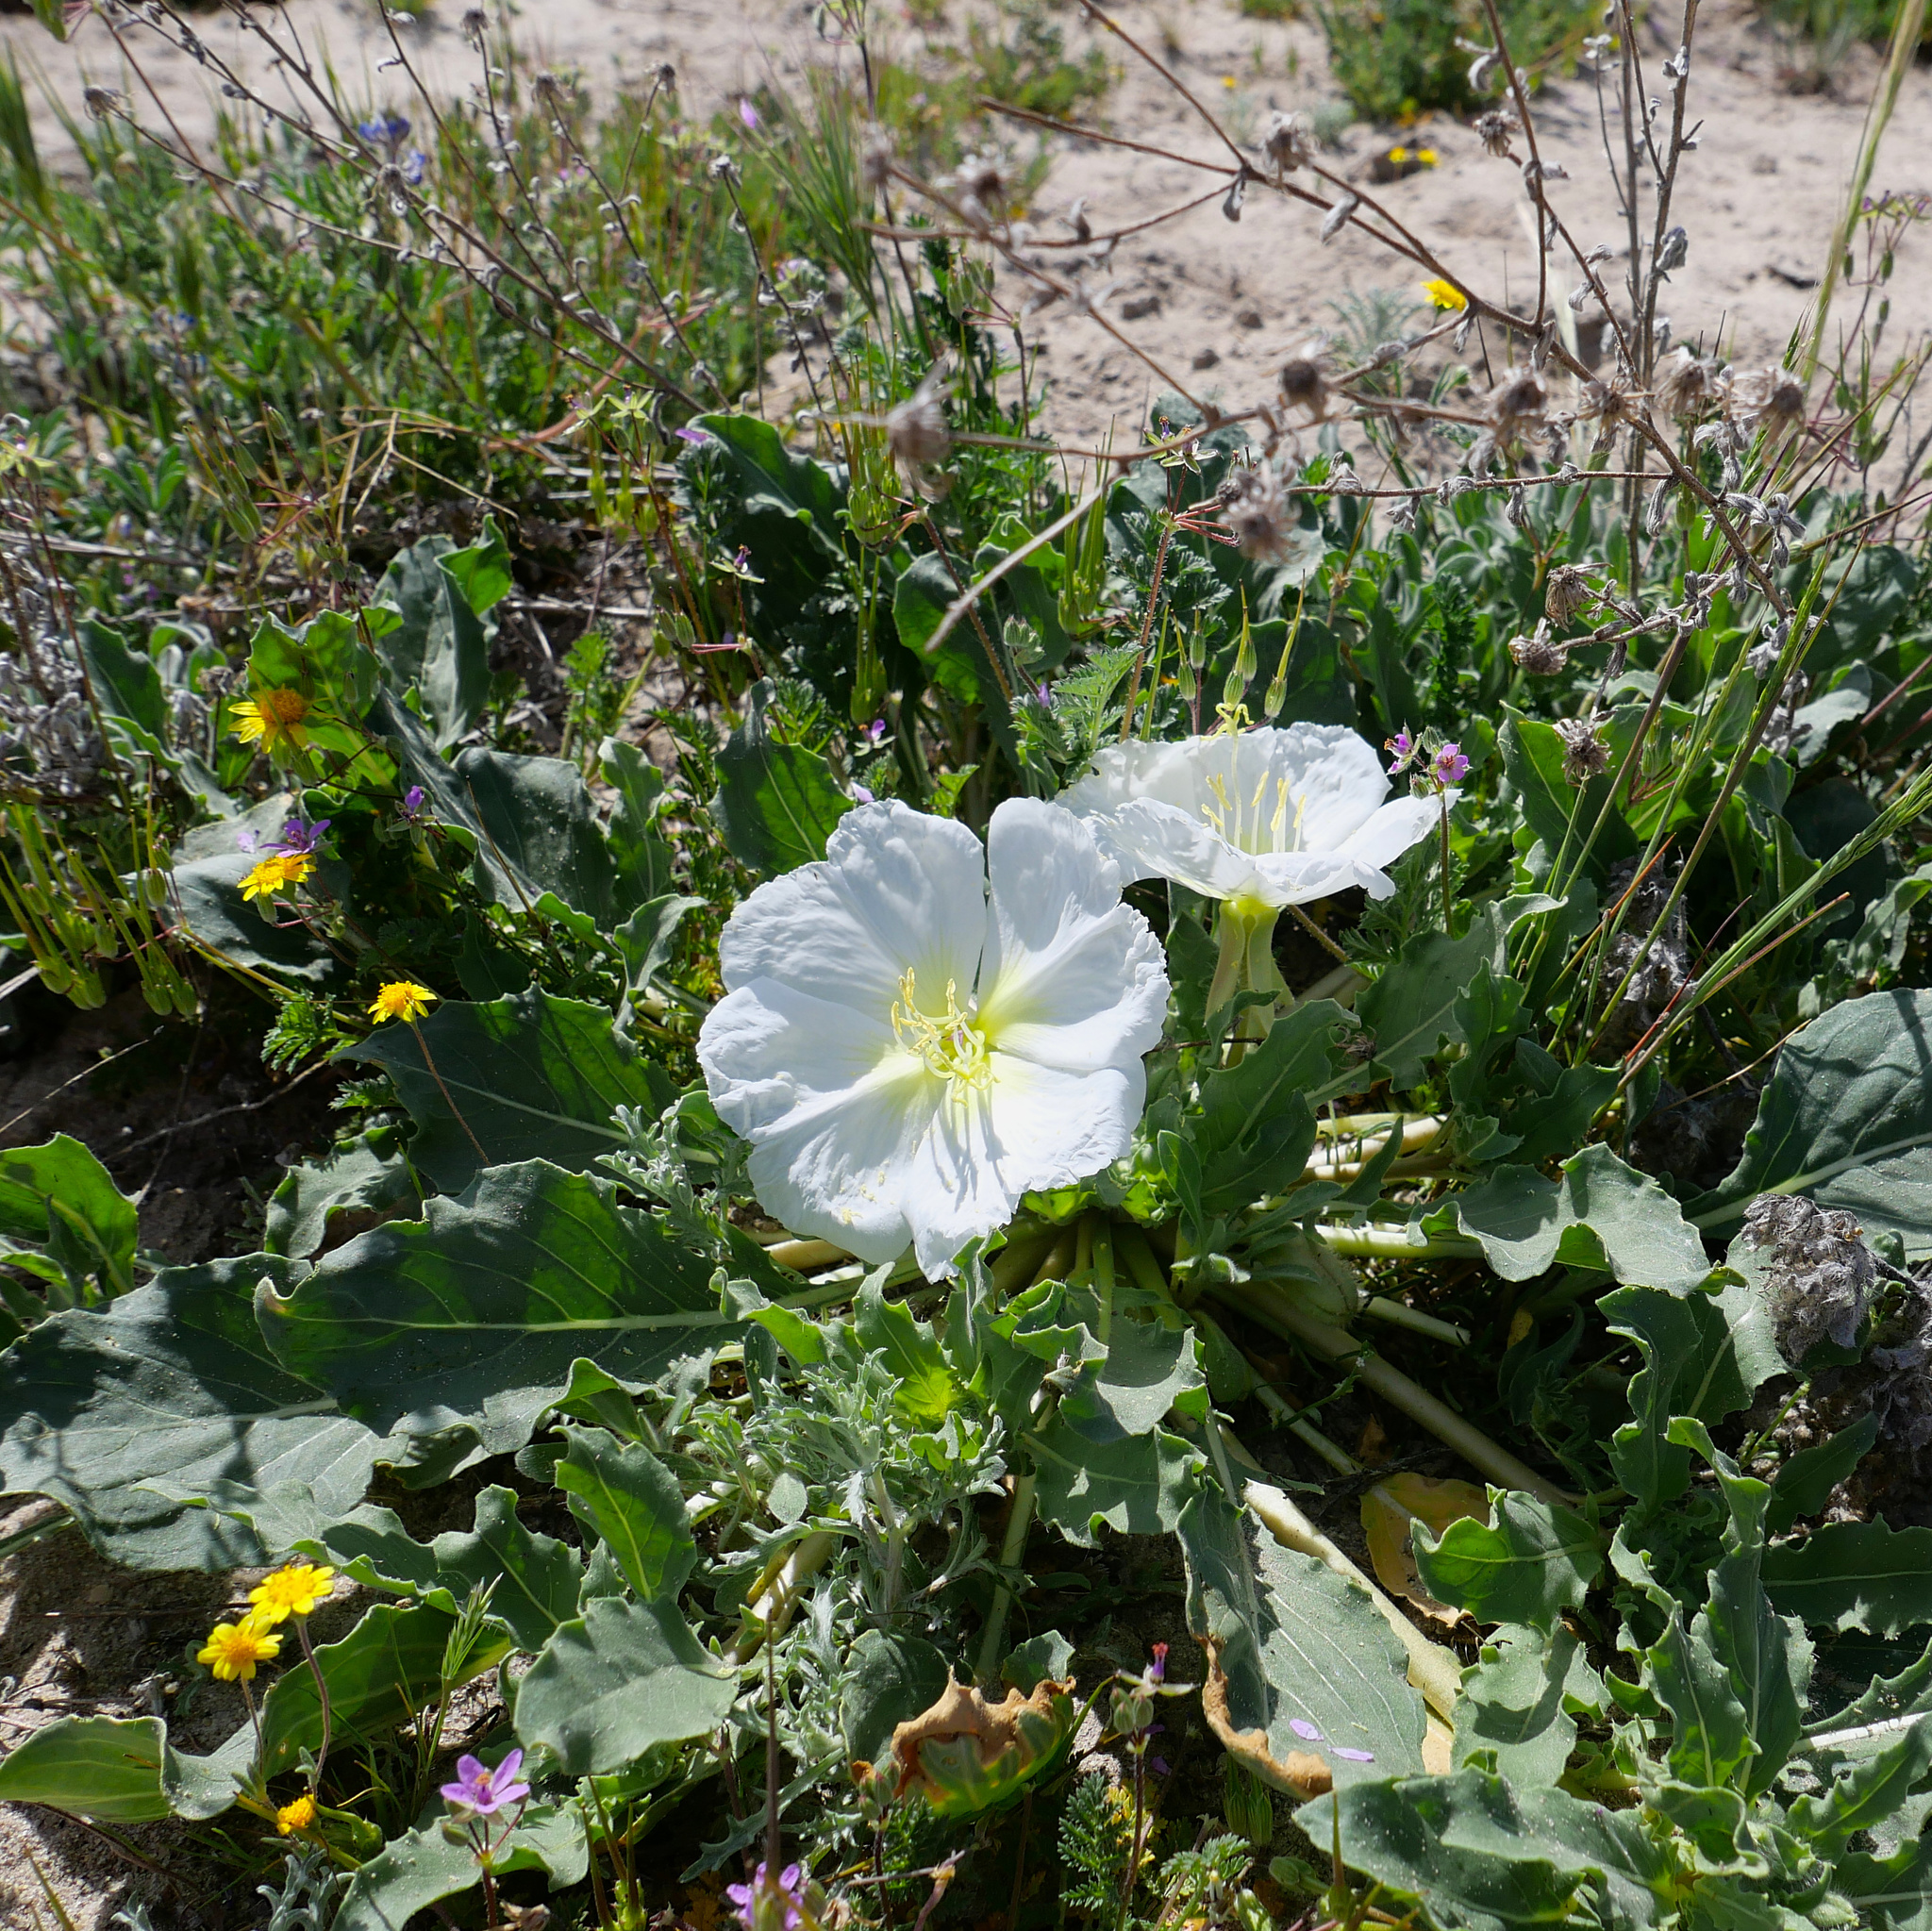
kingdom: Plantae
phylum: Tracheophyta
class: Magnoliopsida
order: Myrtales
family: Onagraceae
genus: Oenothera
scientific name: Oenothera deltoides
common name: Basket evening-primrose
